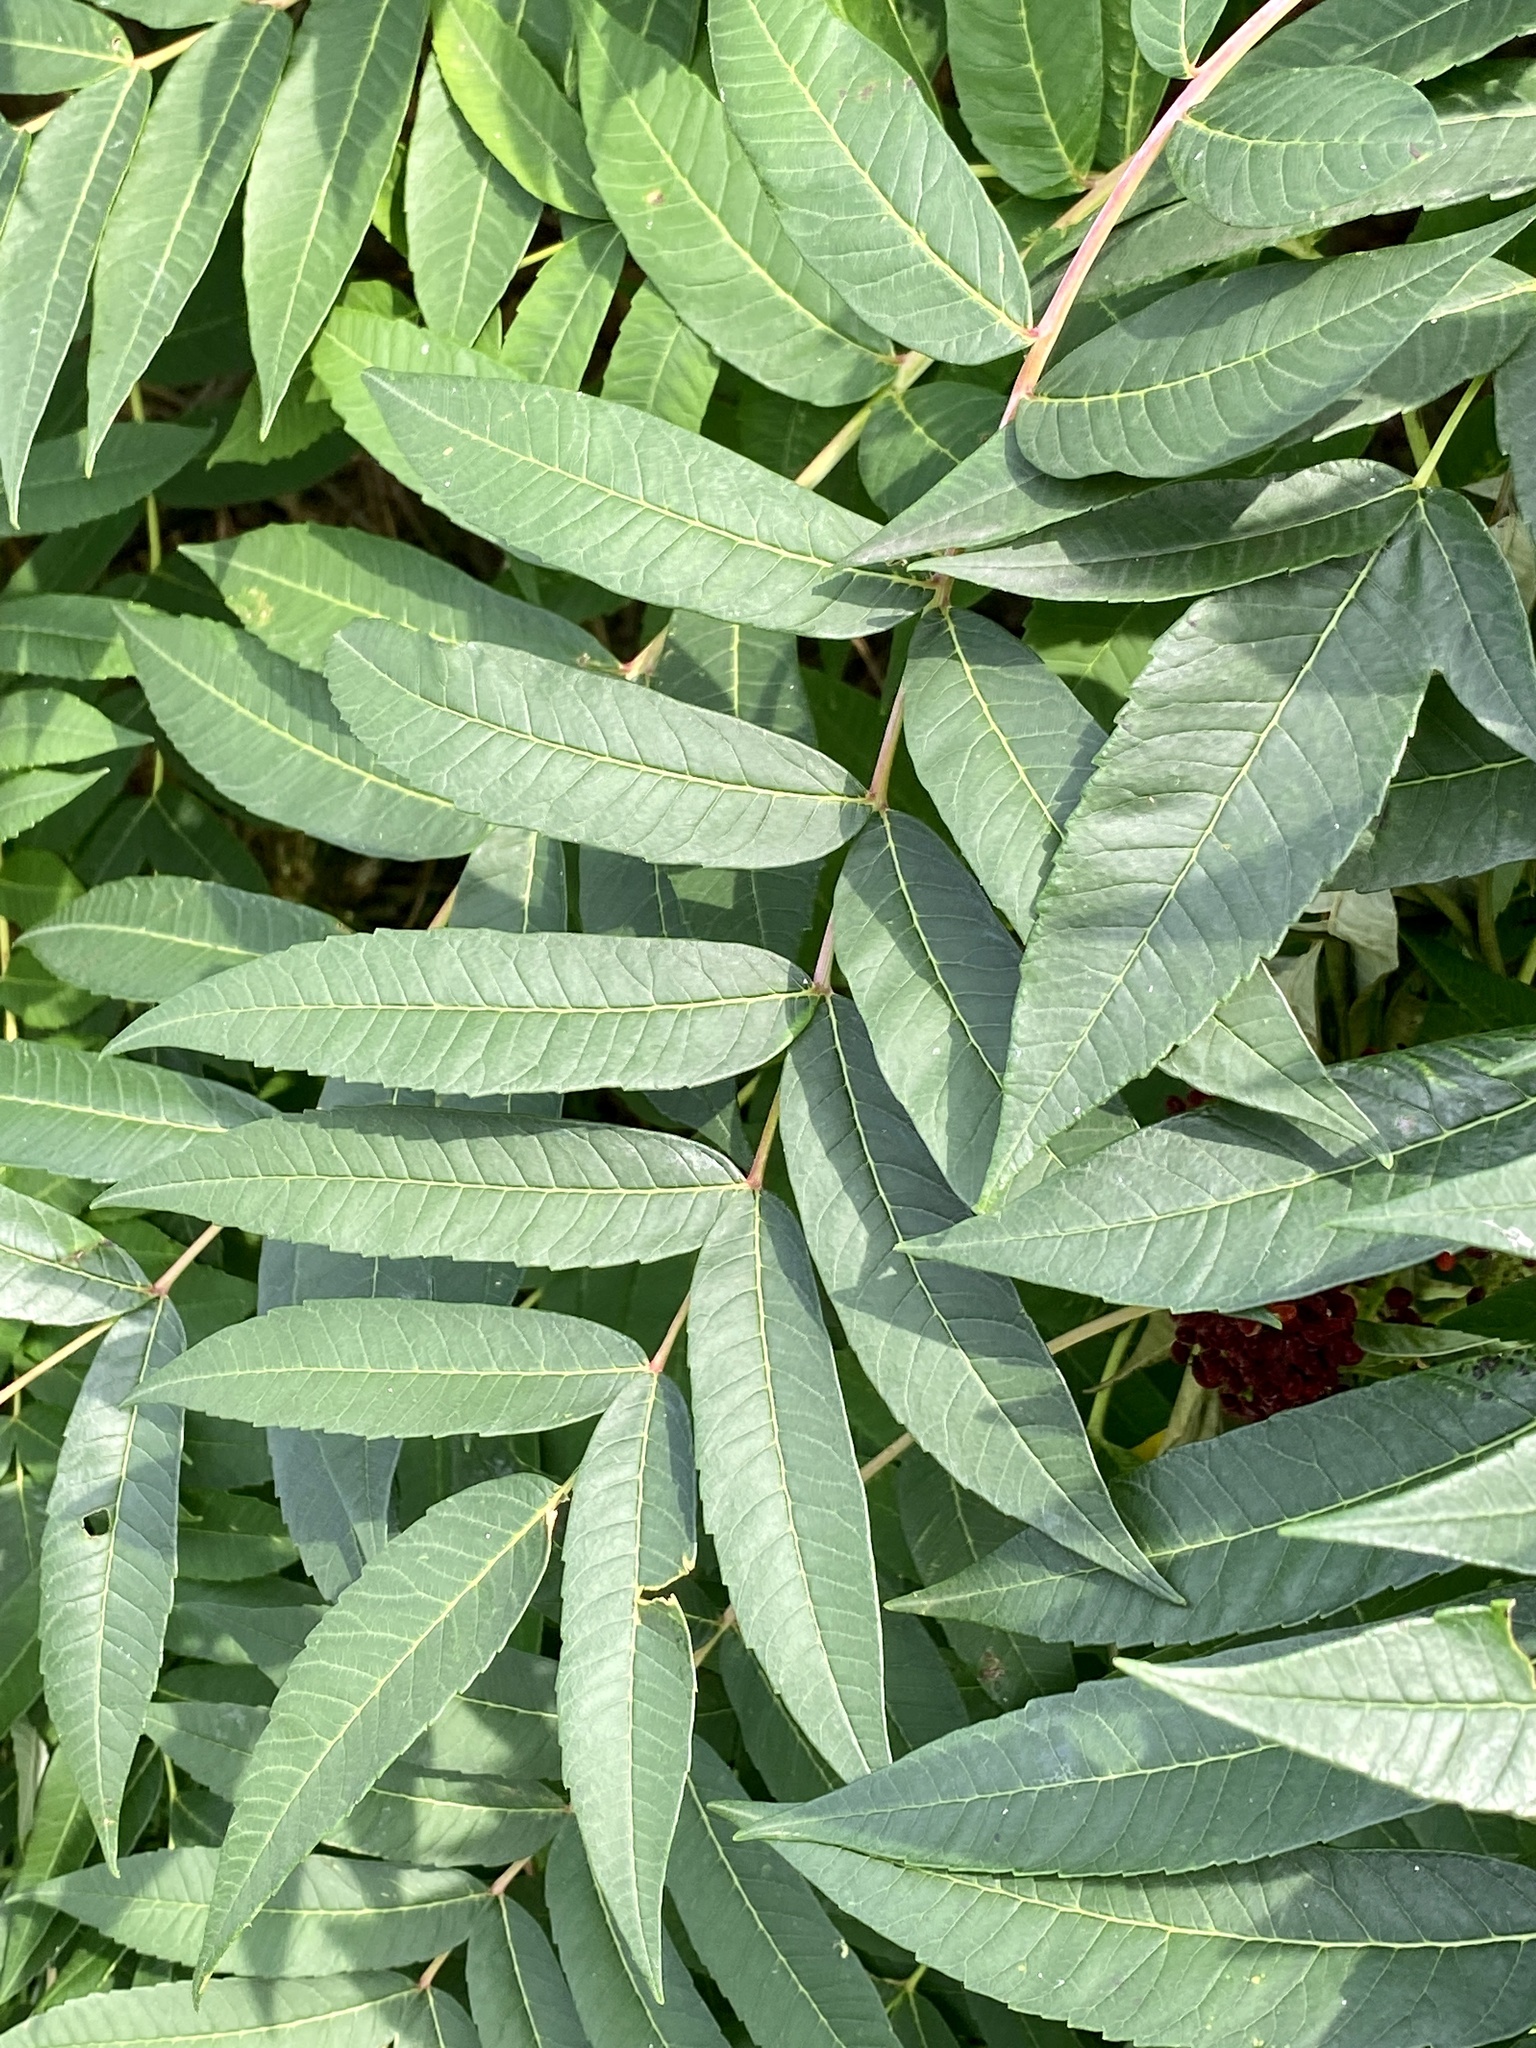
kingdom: Plantae
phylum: Tracheophyta
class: Magnoliopsida
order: Sapindales
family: Anacardiaceae
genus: Rhus
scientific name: Rhus glabra
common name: Scarlet sumac
